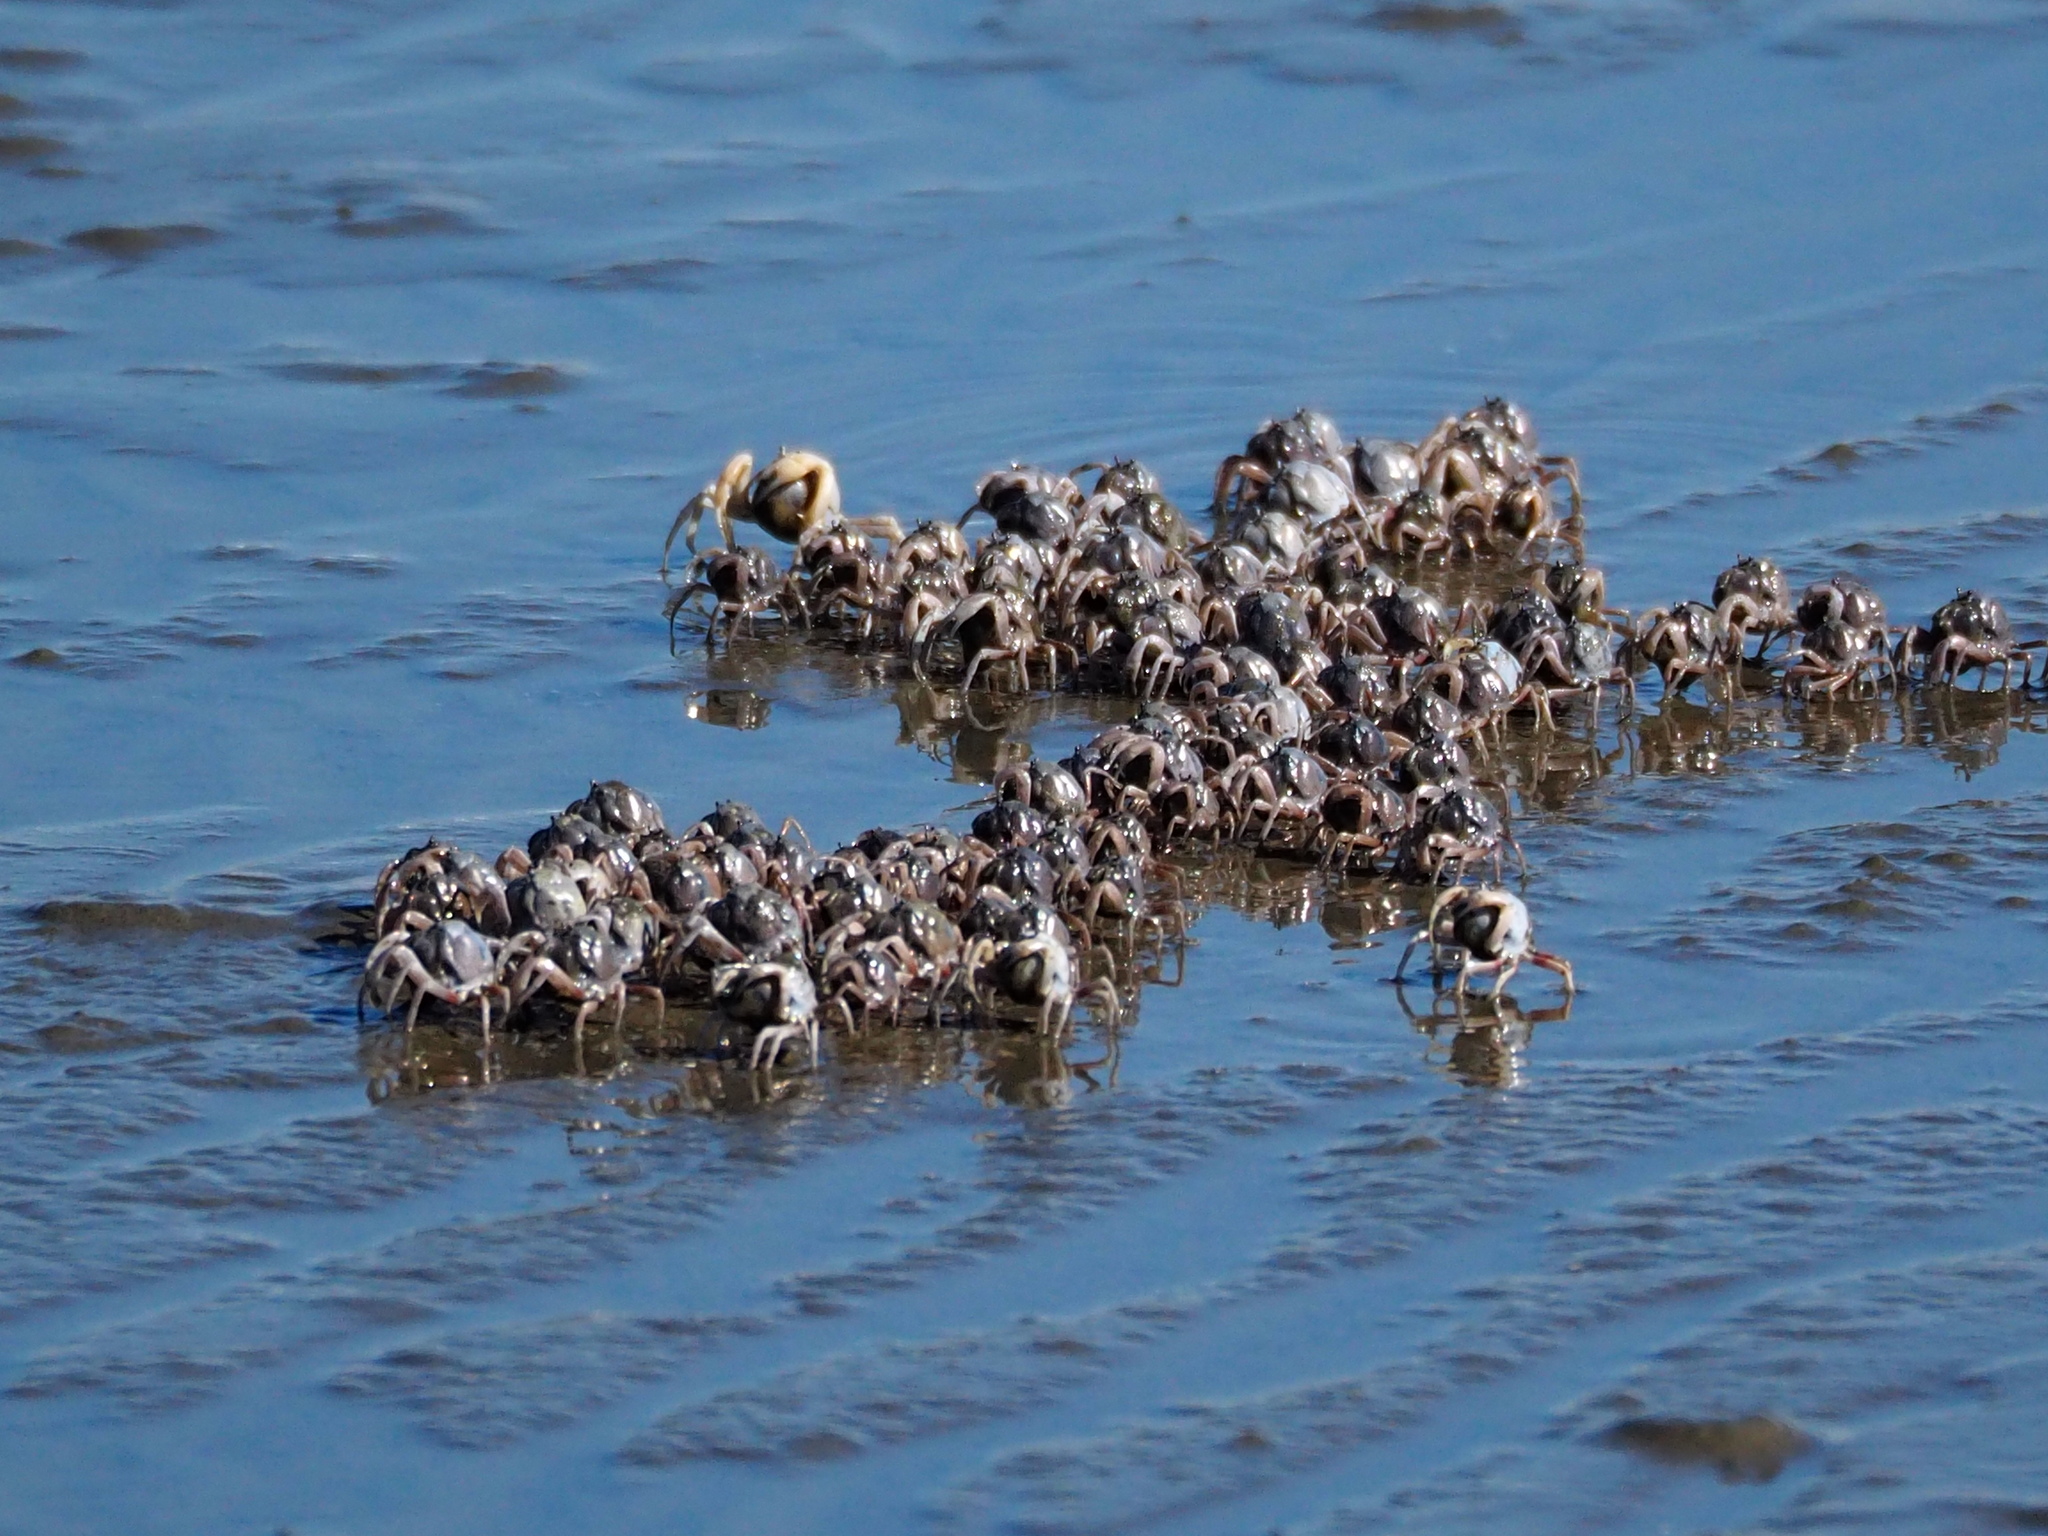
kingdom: Animalia
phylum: Arthropoda
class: Malacostraca
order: Decapoda
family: Mictyridae
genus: Mictyris
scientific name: Mictyris brevidactylus
